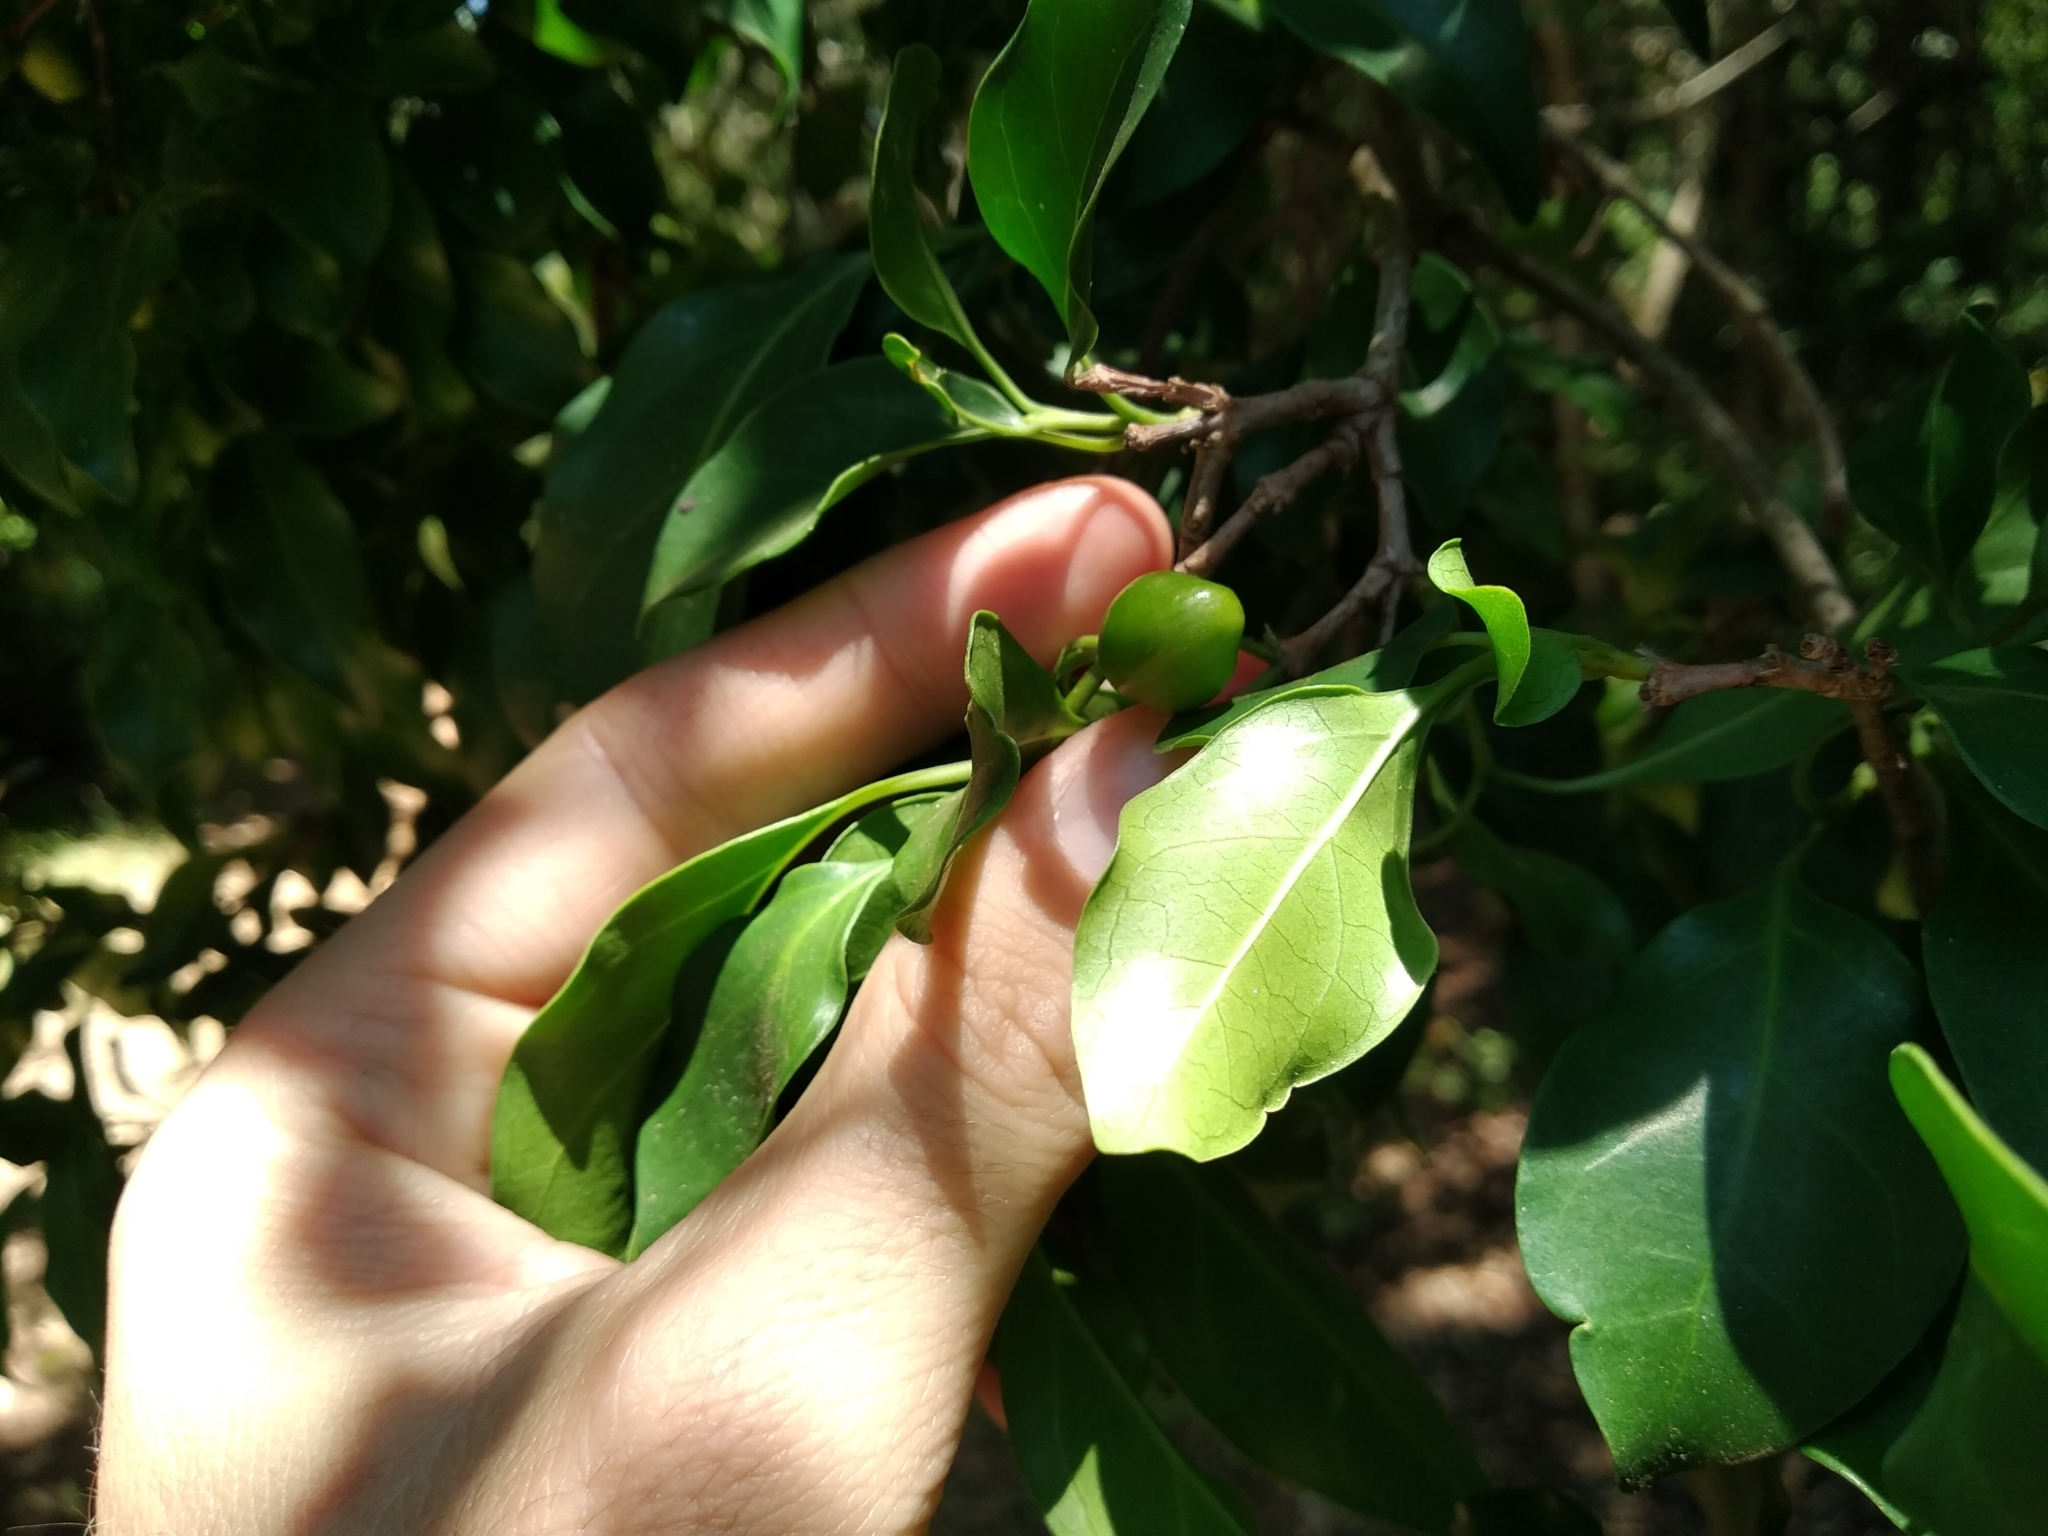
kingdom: Plantae
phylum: Tracheophyta
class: Magnoliopsida
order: Gentianales
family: Rubiaceae
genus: Canthium
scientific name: Canthium inerme
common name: Unarmed turkey-berry
